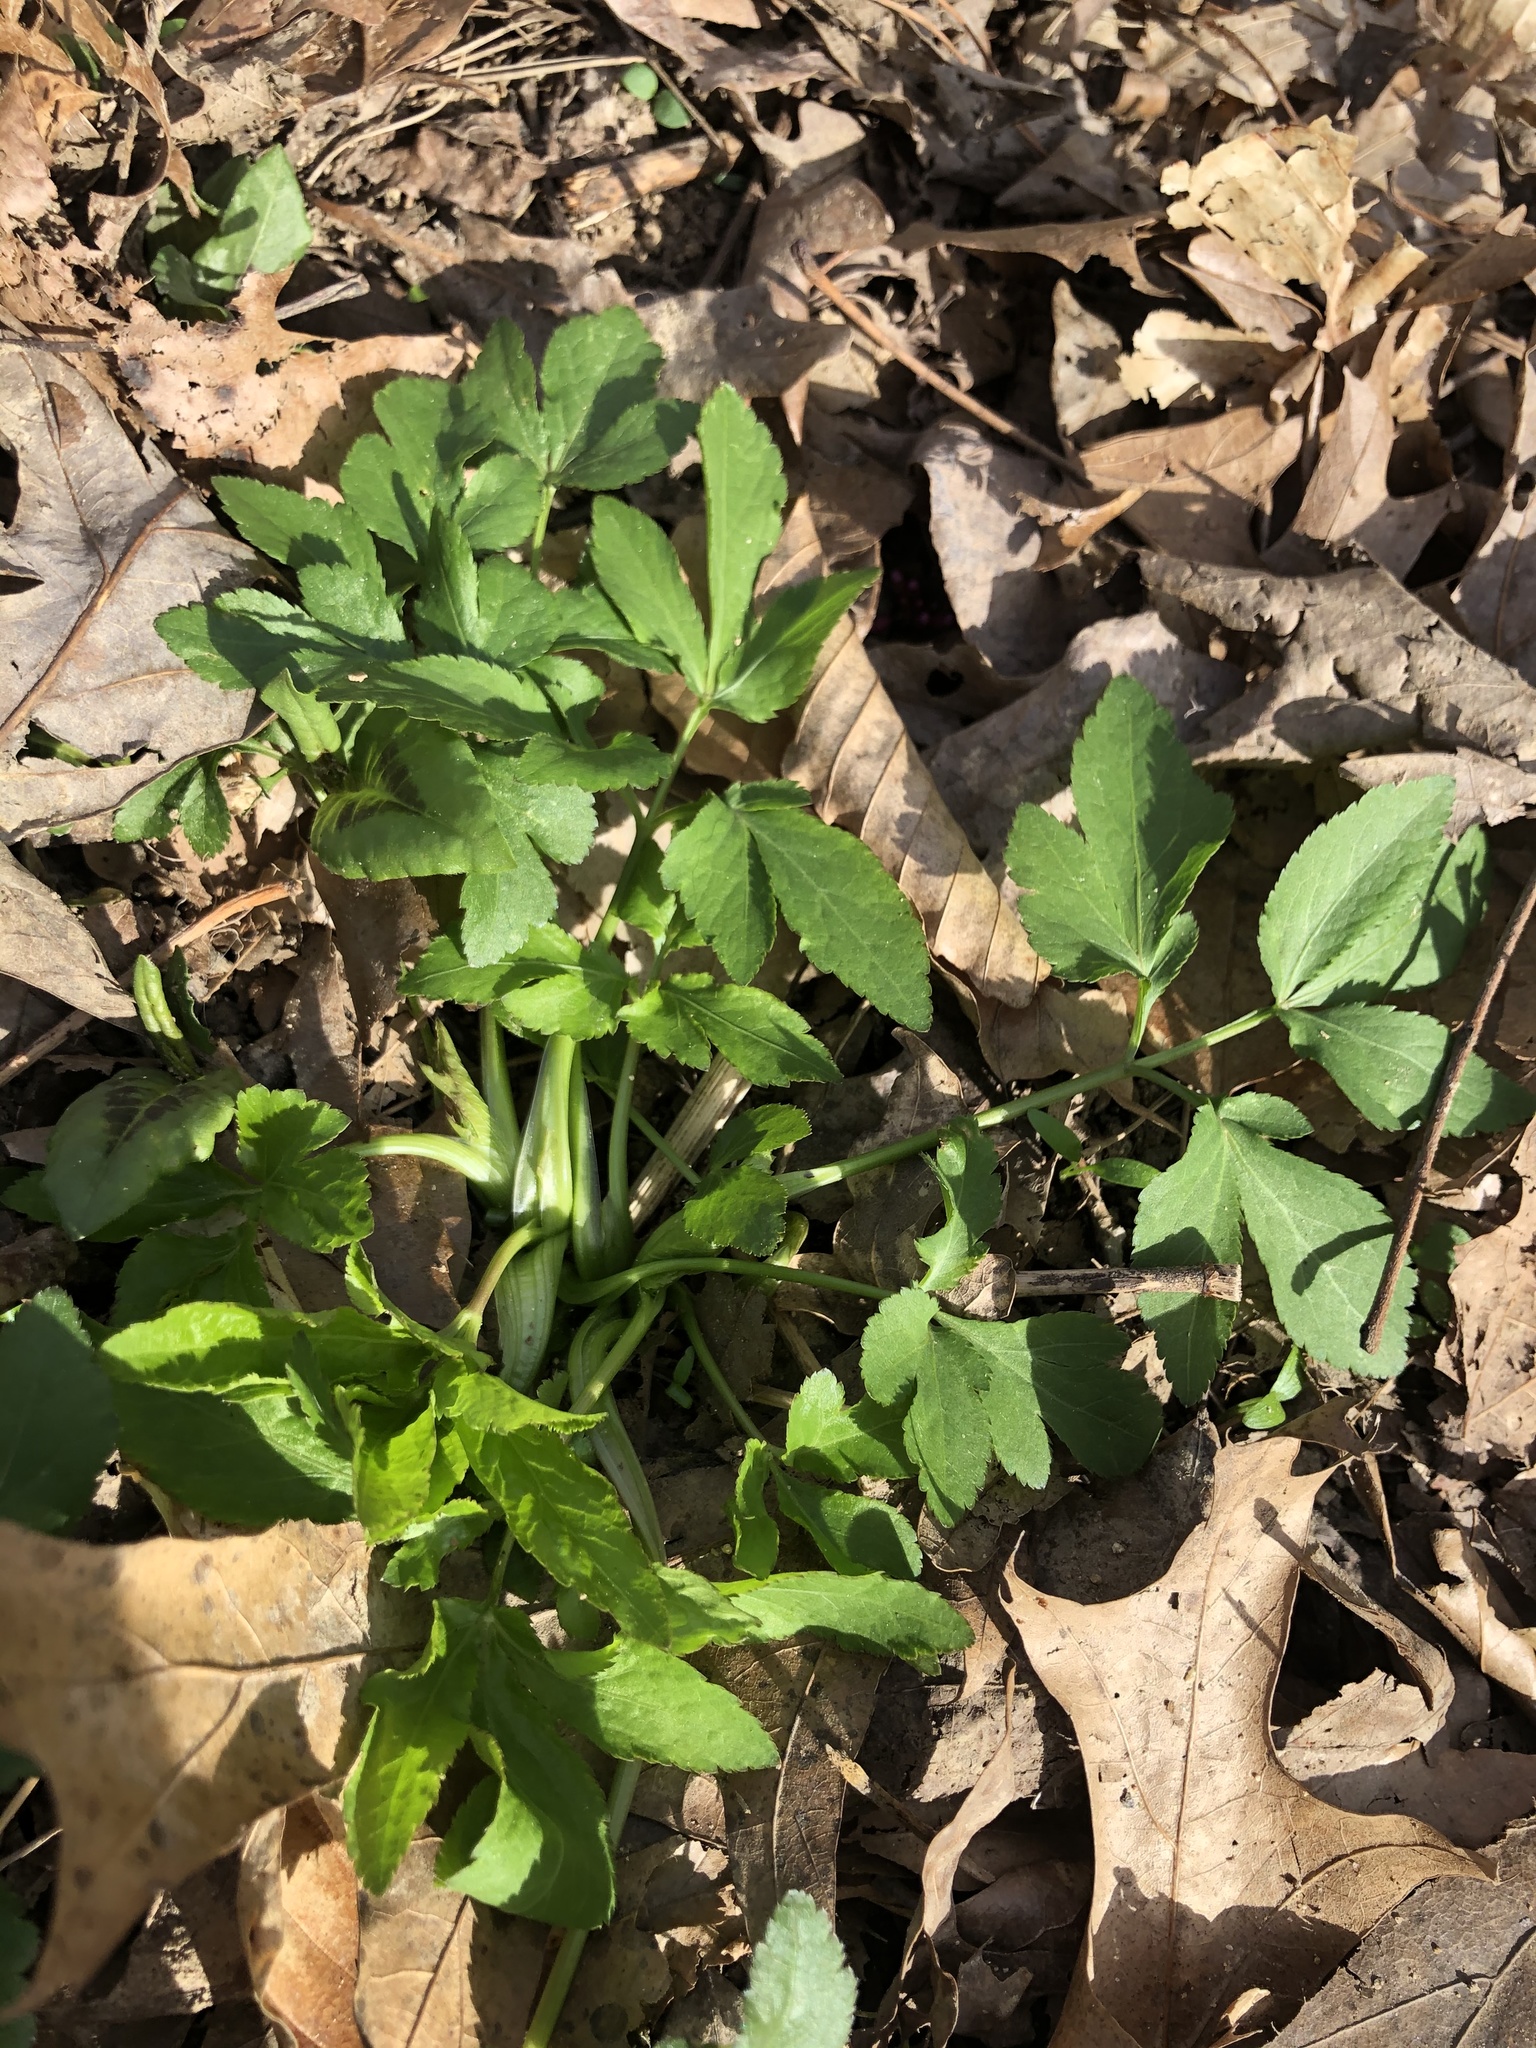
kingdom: Plantae
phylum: Tracheophyta
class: Magnoliopsida
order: Apiales
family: Apiaceae
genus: Zizia
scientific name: Zizia aurea
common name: Golden alexanders
